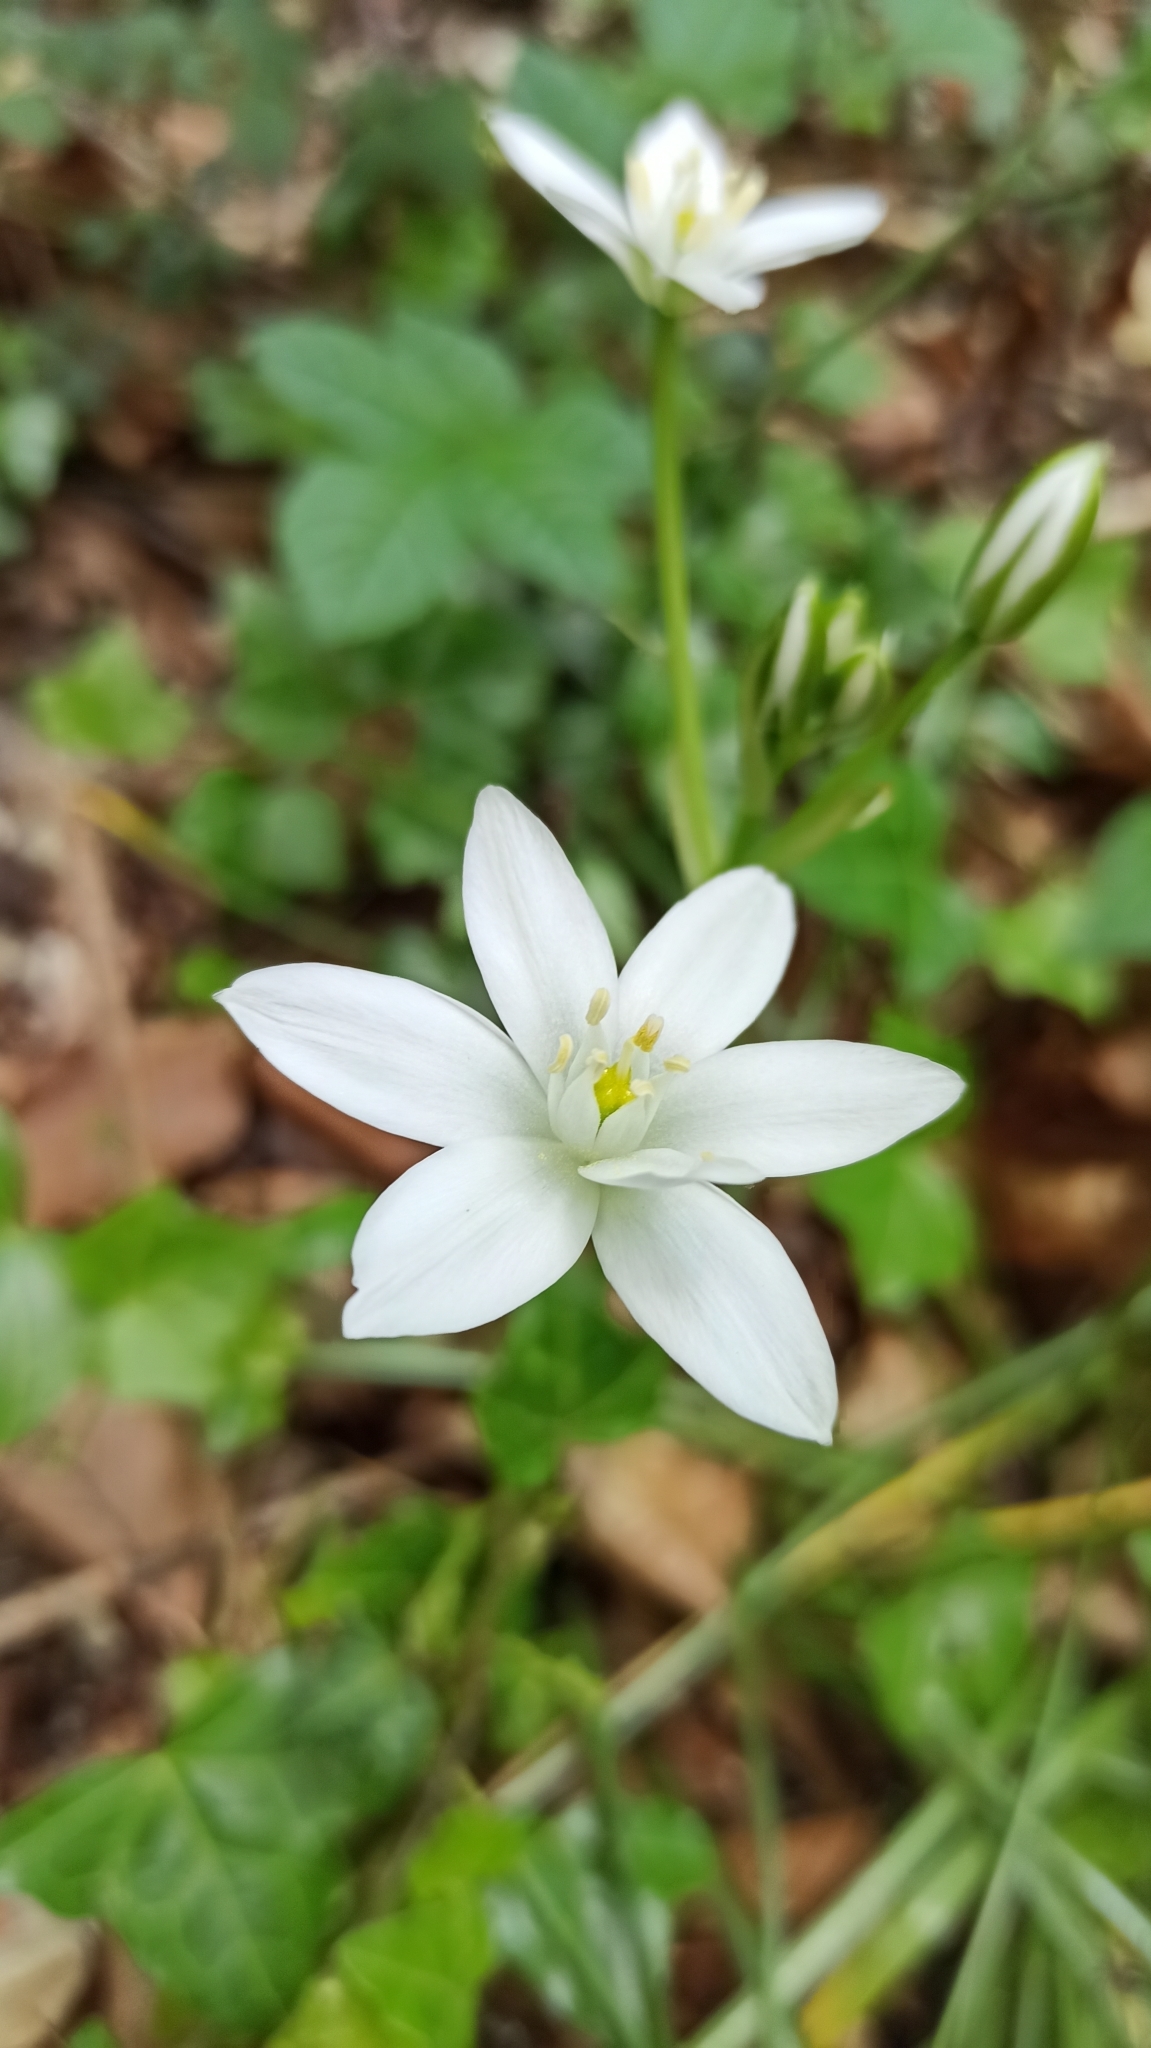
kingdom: Plantae
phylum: Tracheophyta
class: Liliopsida
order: Asparagales
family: Asparagaceae
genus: Ornithogalum
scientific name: Ornithogalum umbellatum
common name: Garden star-of-bethlehem
